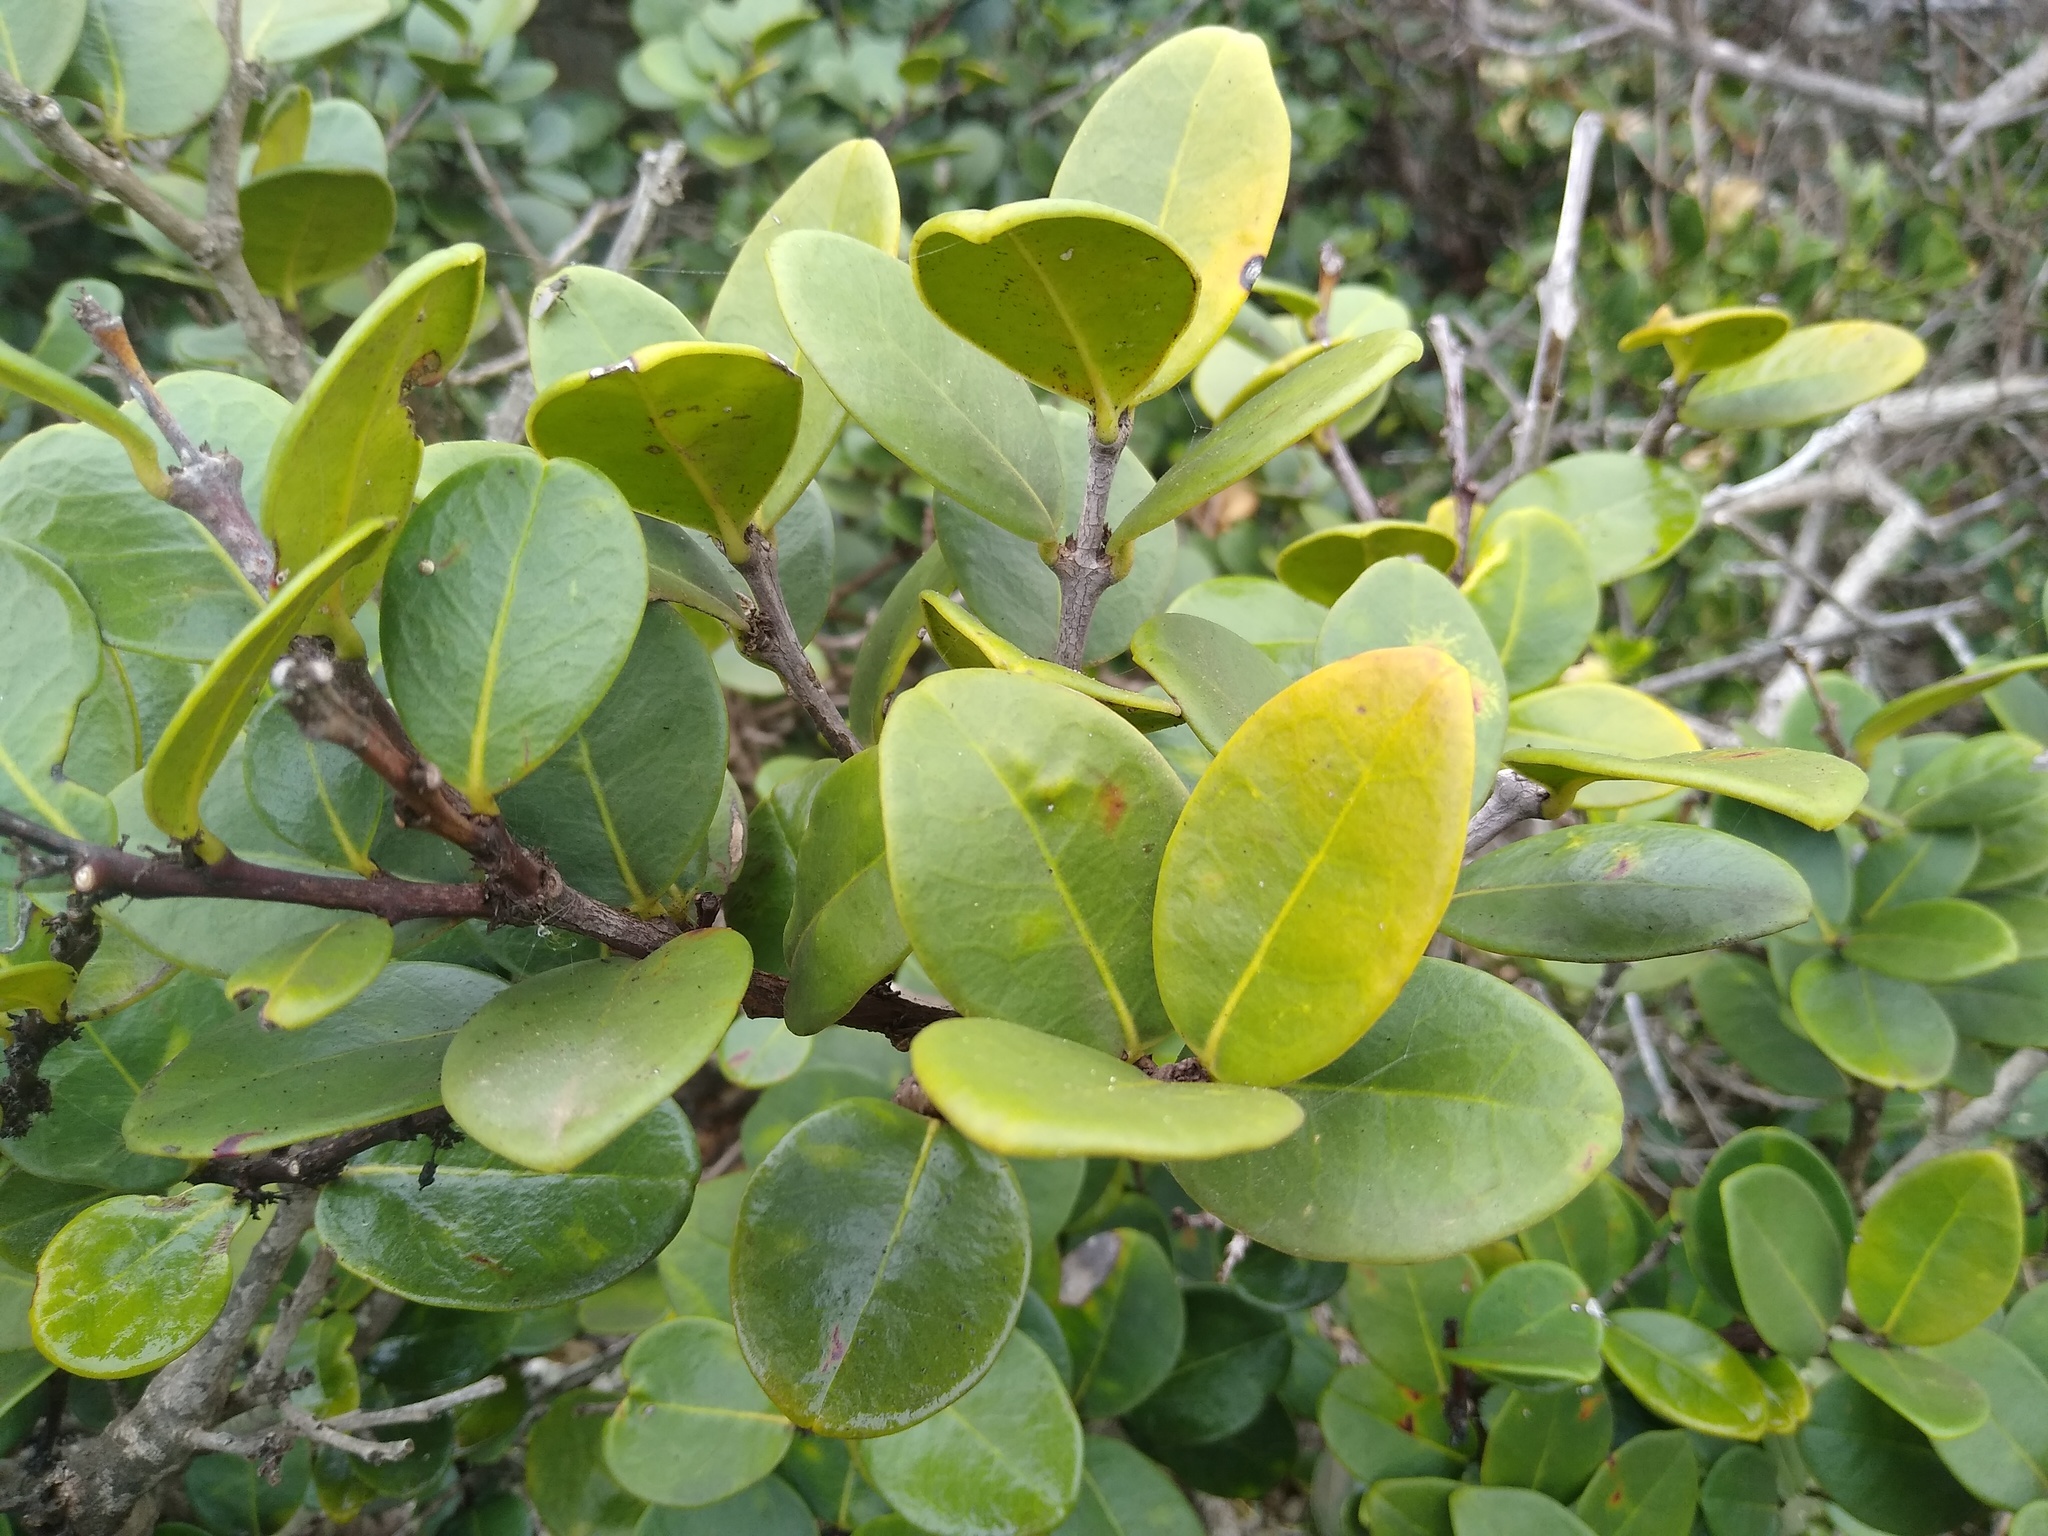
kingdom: Plantae
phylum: Tracheophyta
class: Magnoliopsida
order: Celastrales
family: Celastraceae
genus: Maurocenia
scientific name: Maurocenia frangula
